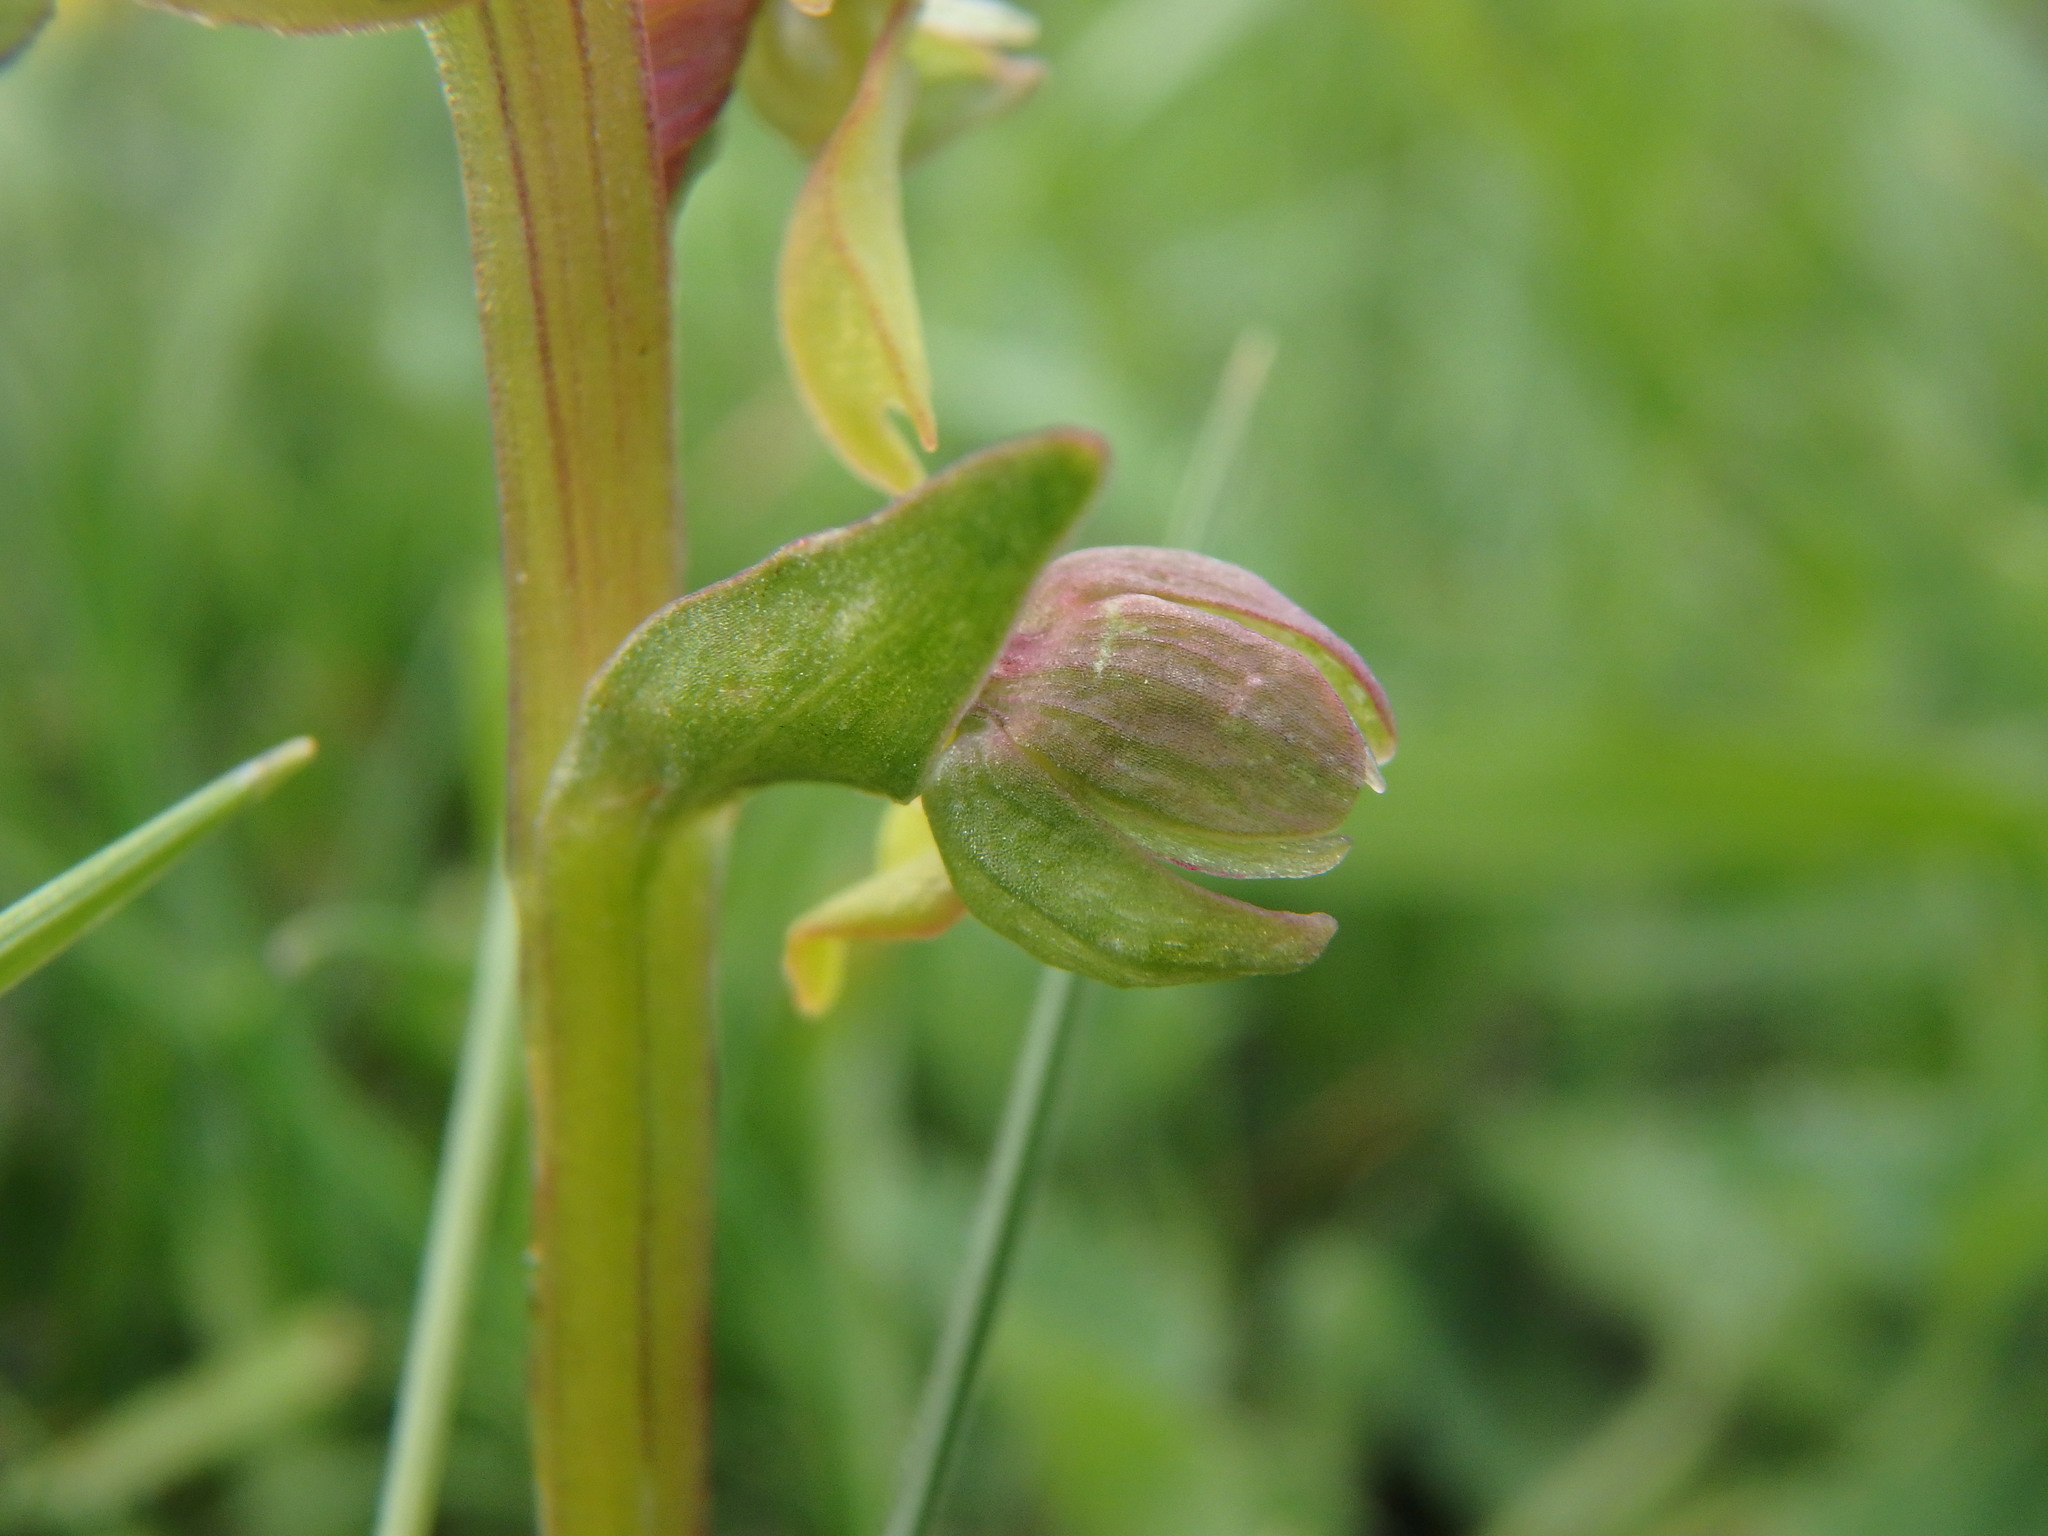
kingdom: Plantae
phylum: Tracheophyta
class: Liliopsida
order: Asparagales
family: Orchidaceae
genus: Dactylorhiza
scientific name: Dactylorhiza viridis
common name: Longbract frog orchid
